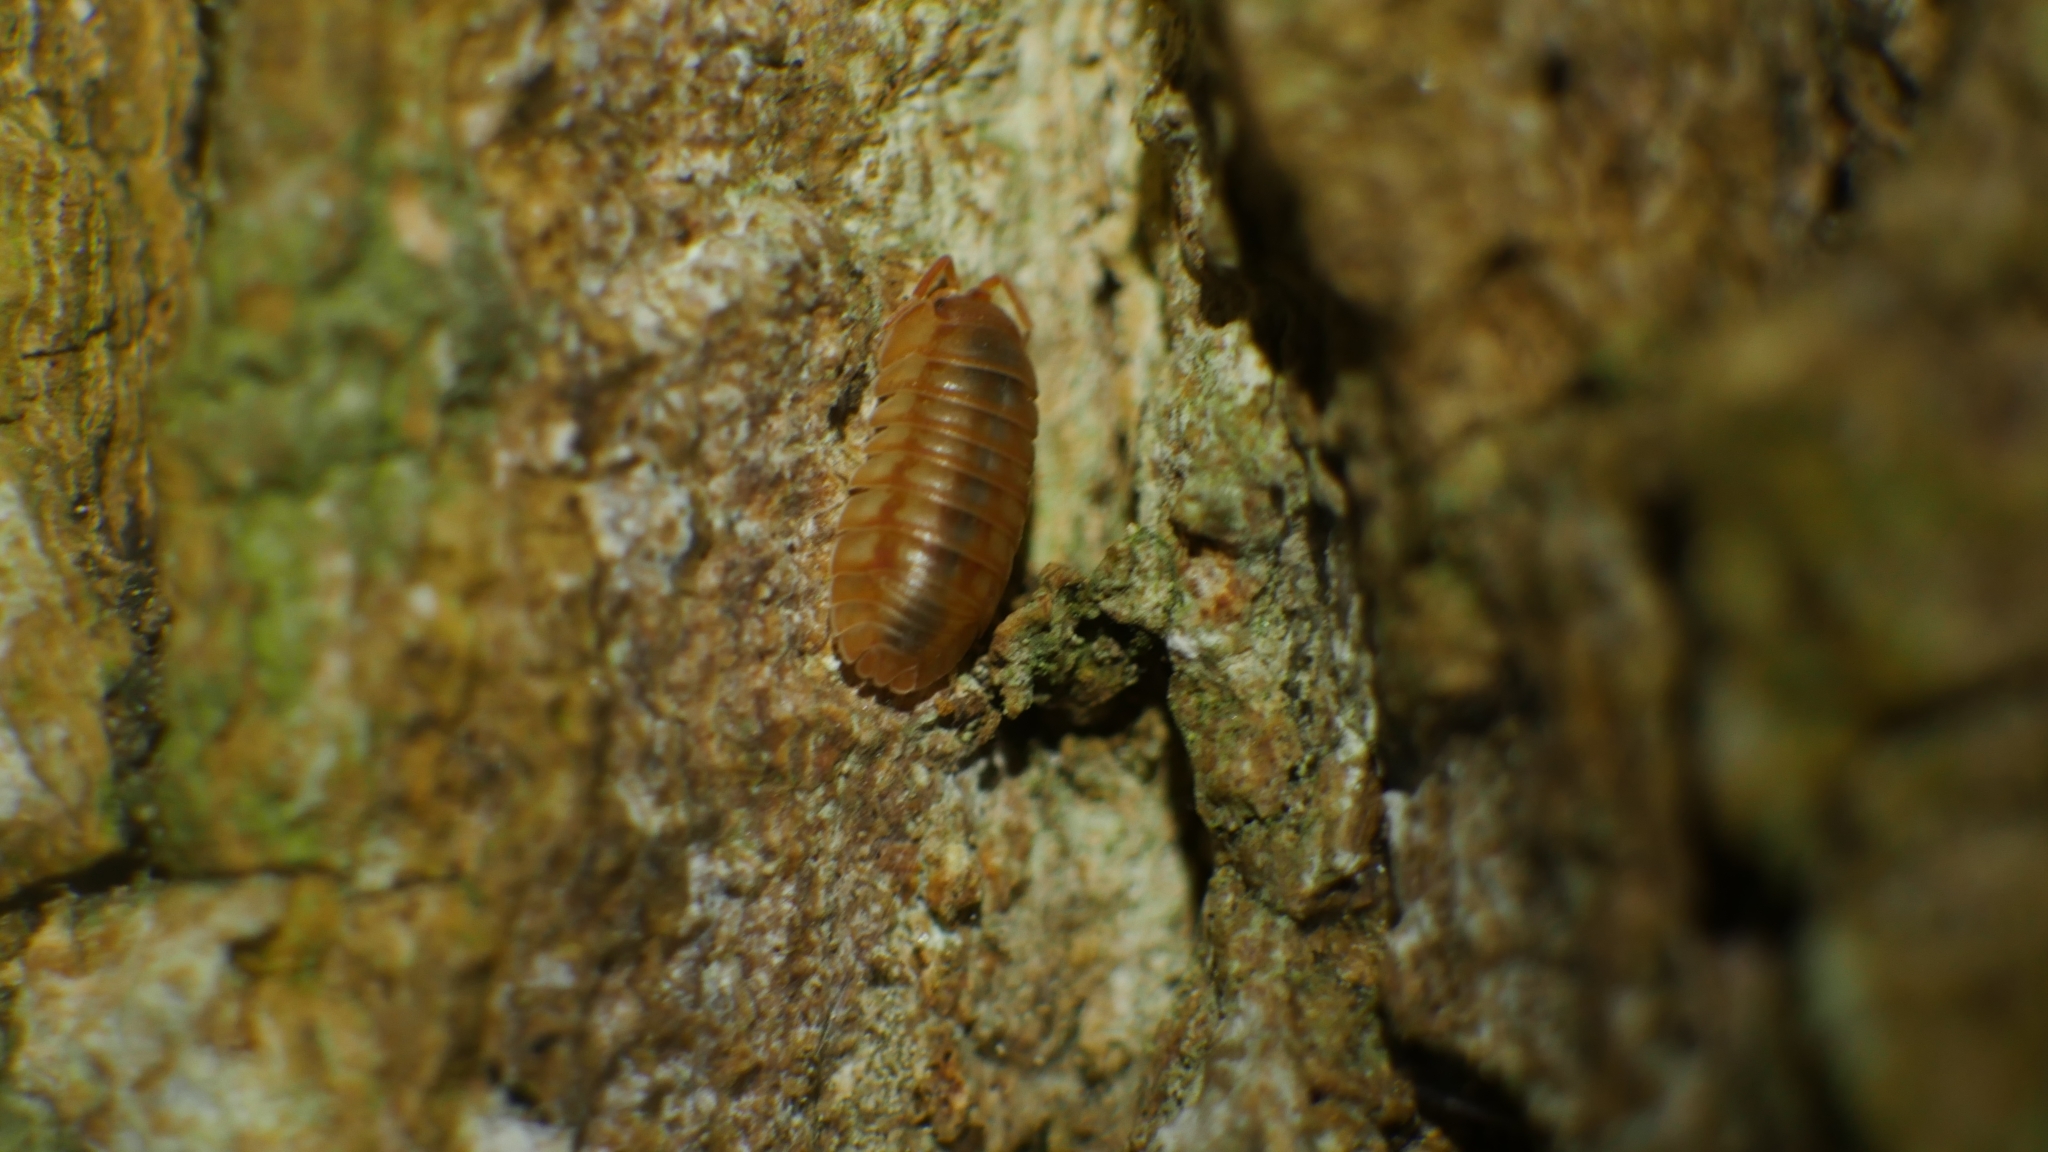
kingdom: Animalia
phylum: Arthropoda
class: Malacostraca
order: Isopoda
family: Armadillidiidae
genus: Armadillidium
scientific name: Armadillidium nasatum
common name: Isopod
